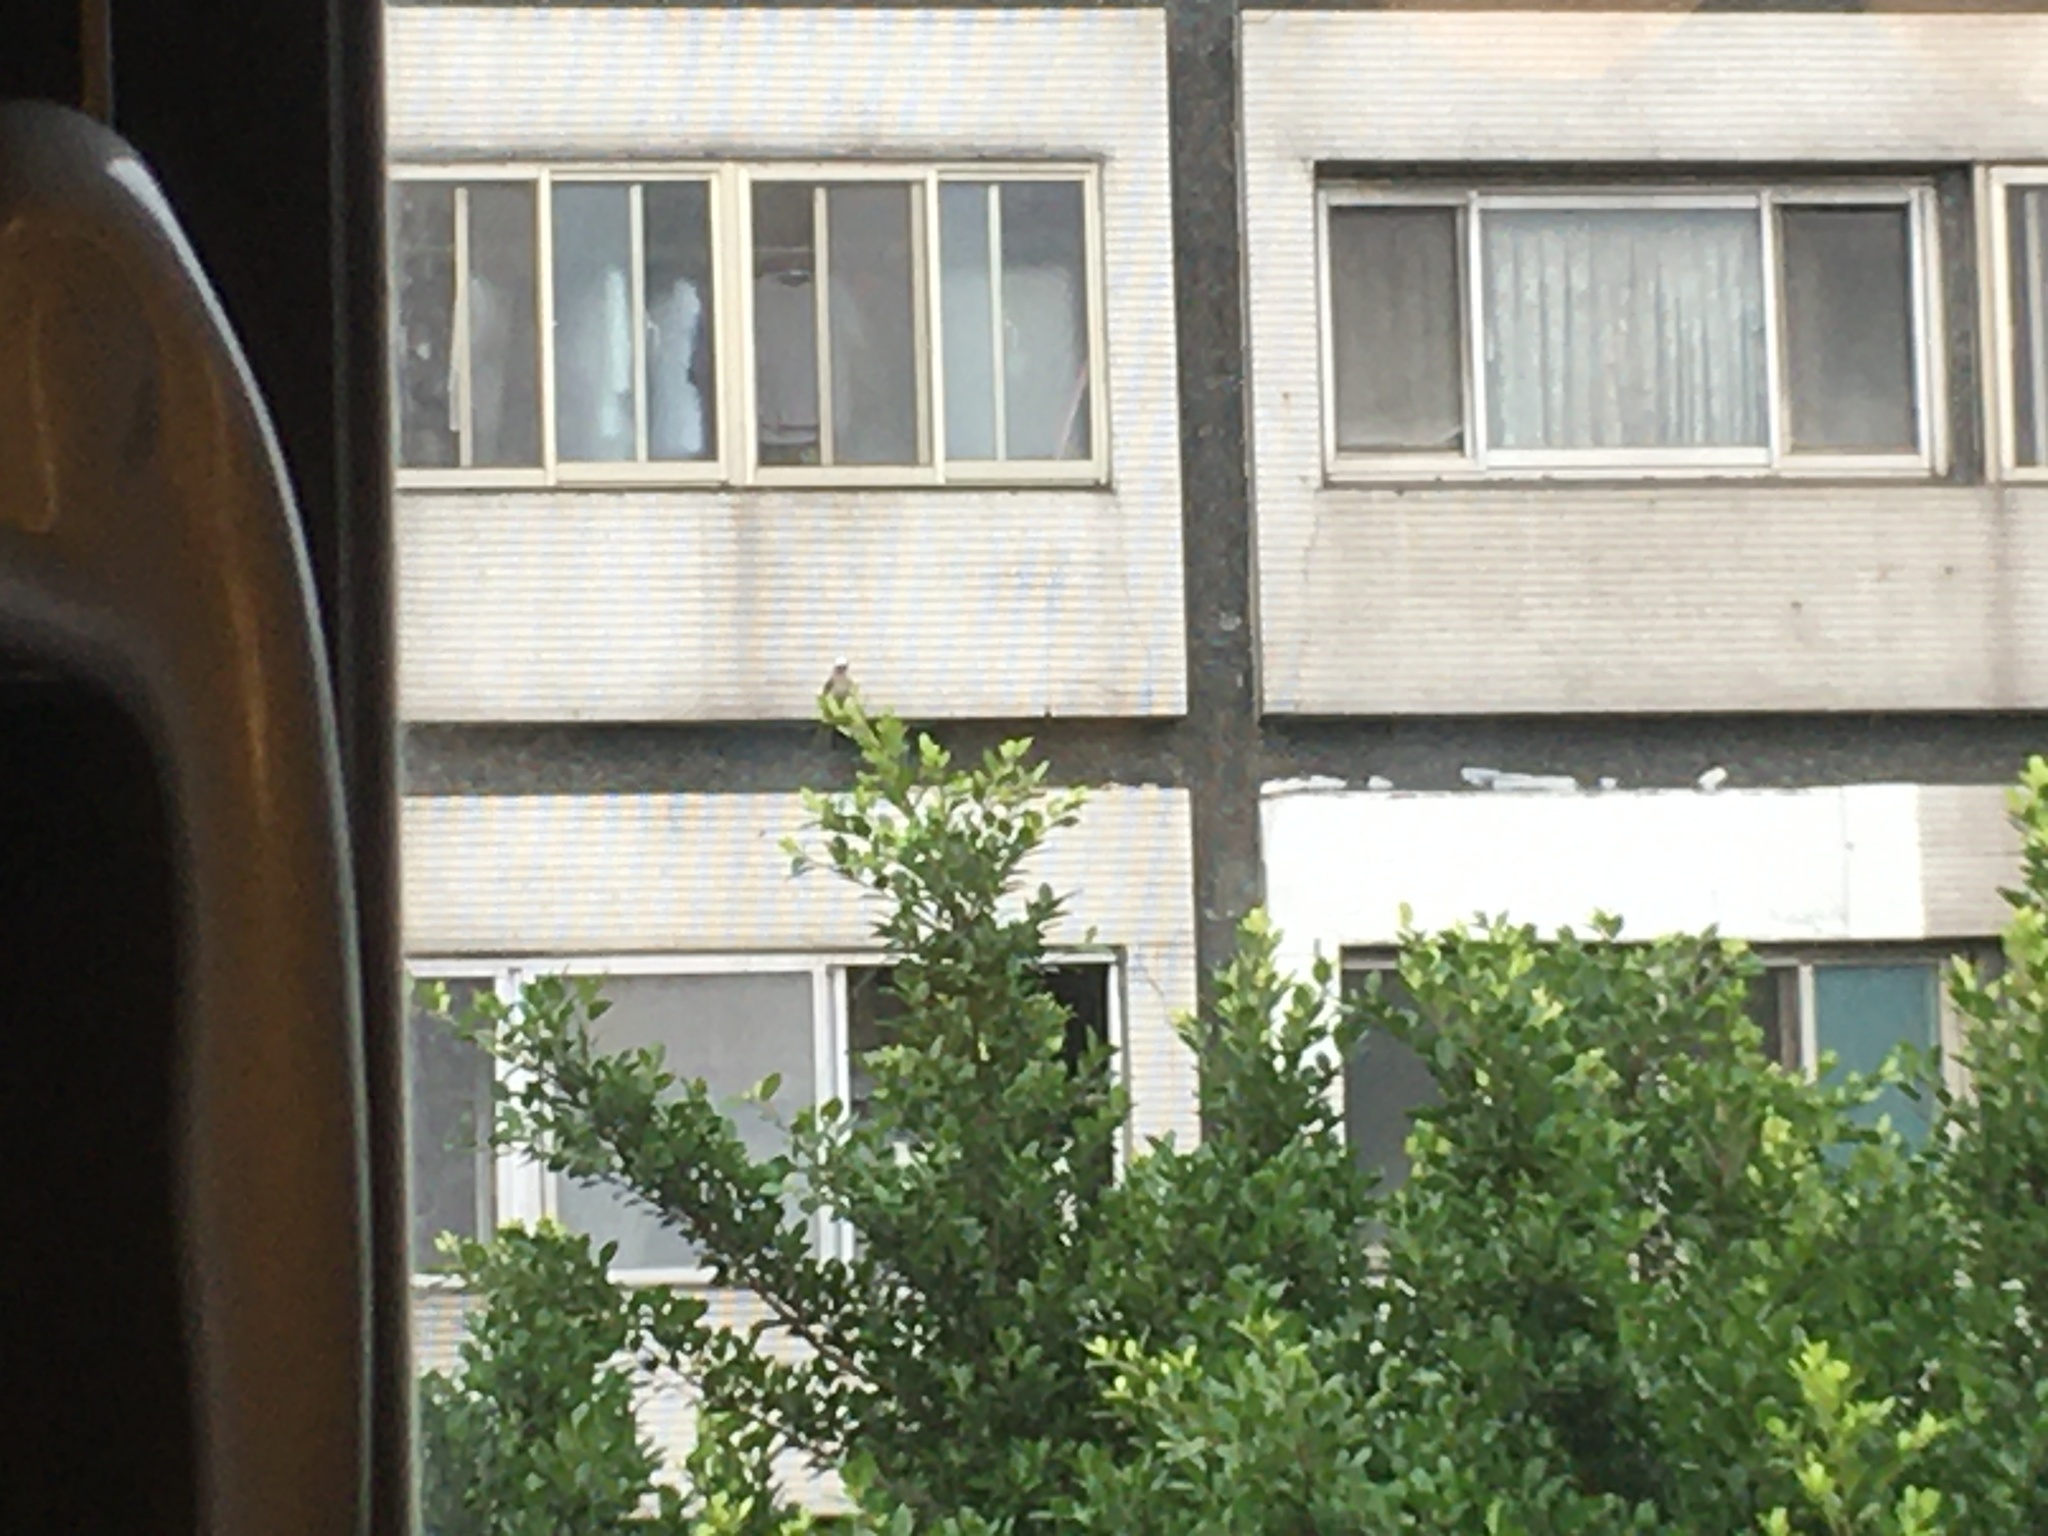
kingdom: Animalia
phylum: Chordata
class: Aves
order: Passeriformes
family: Pycnonotidae
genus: Pycnonotus
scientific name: Pycnonotus sinensis
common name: Light-vented bulbul
